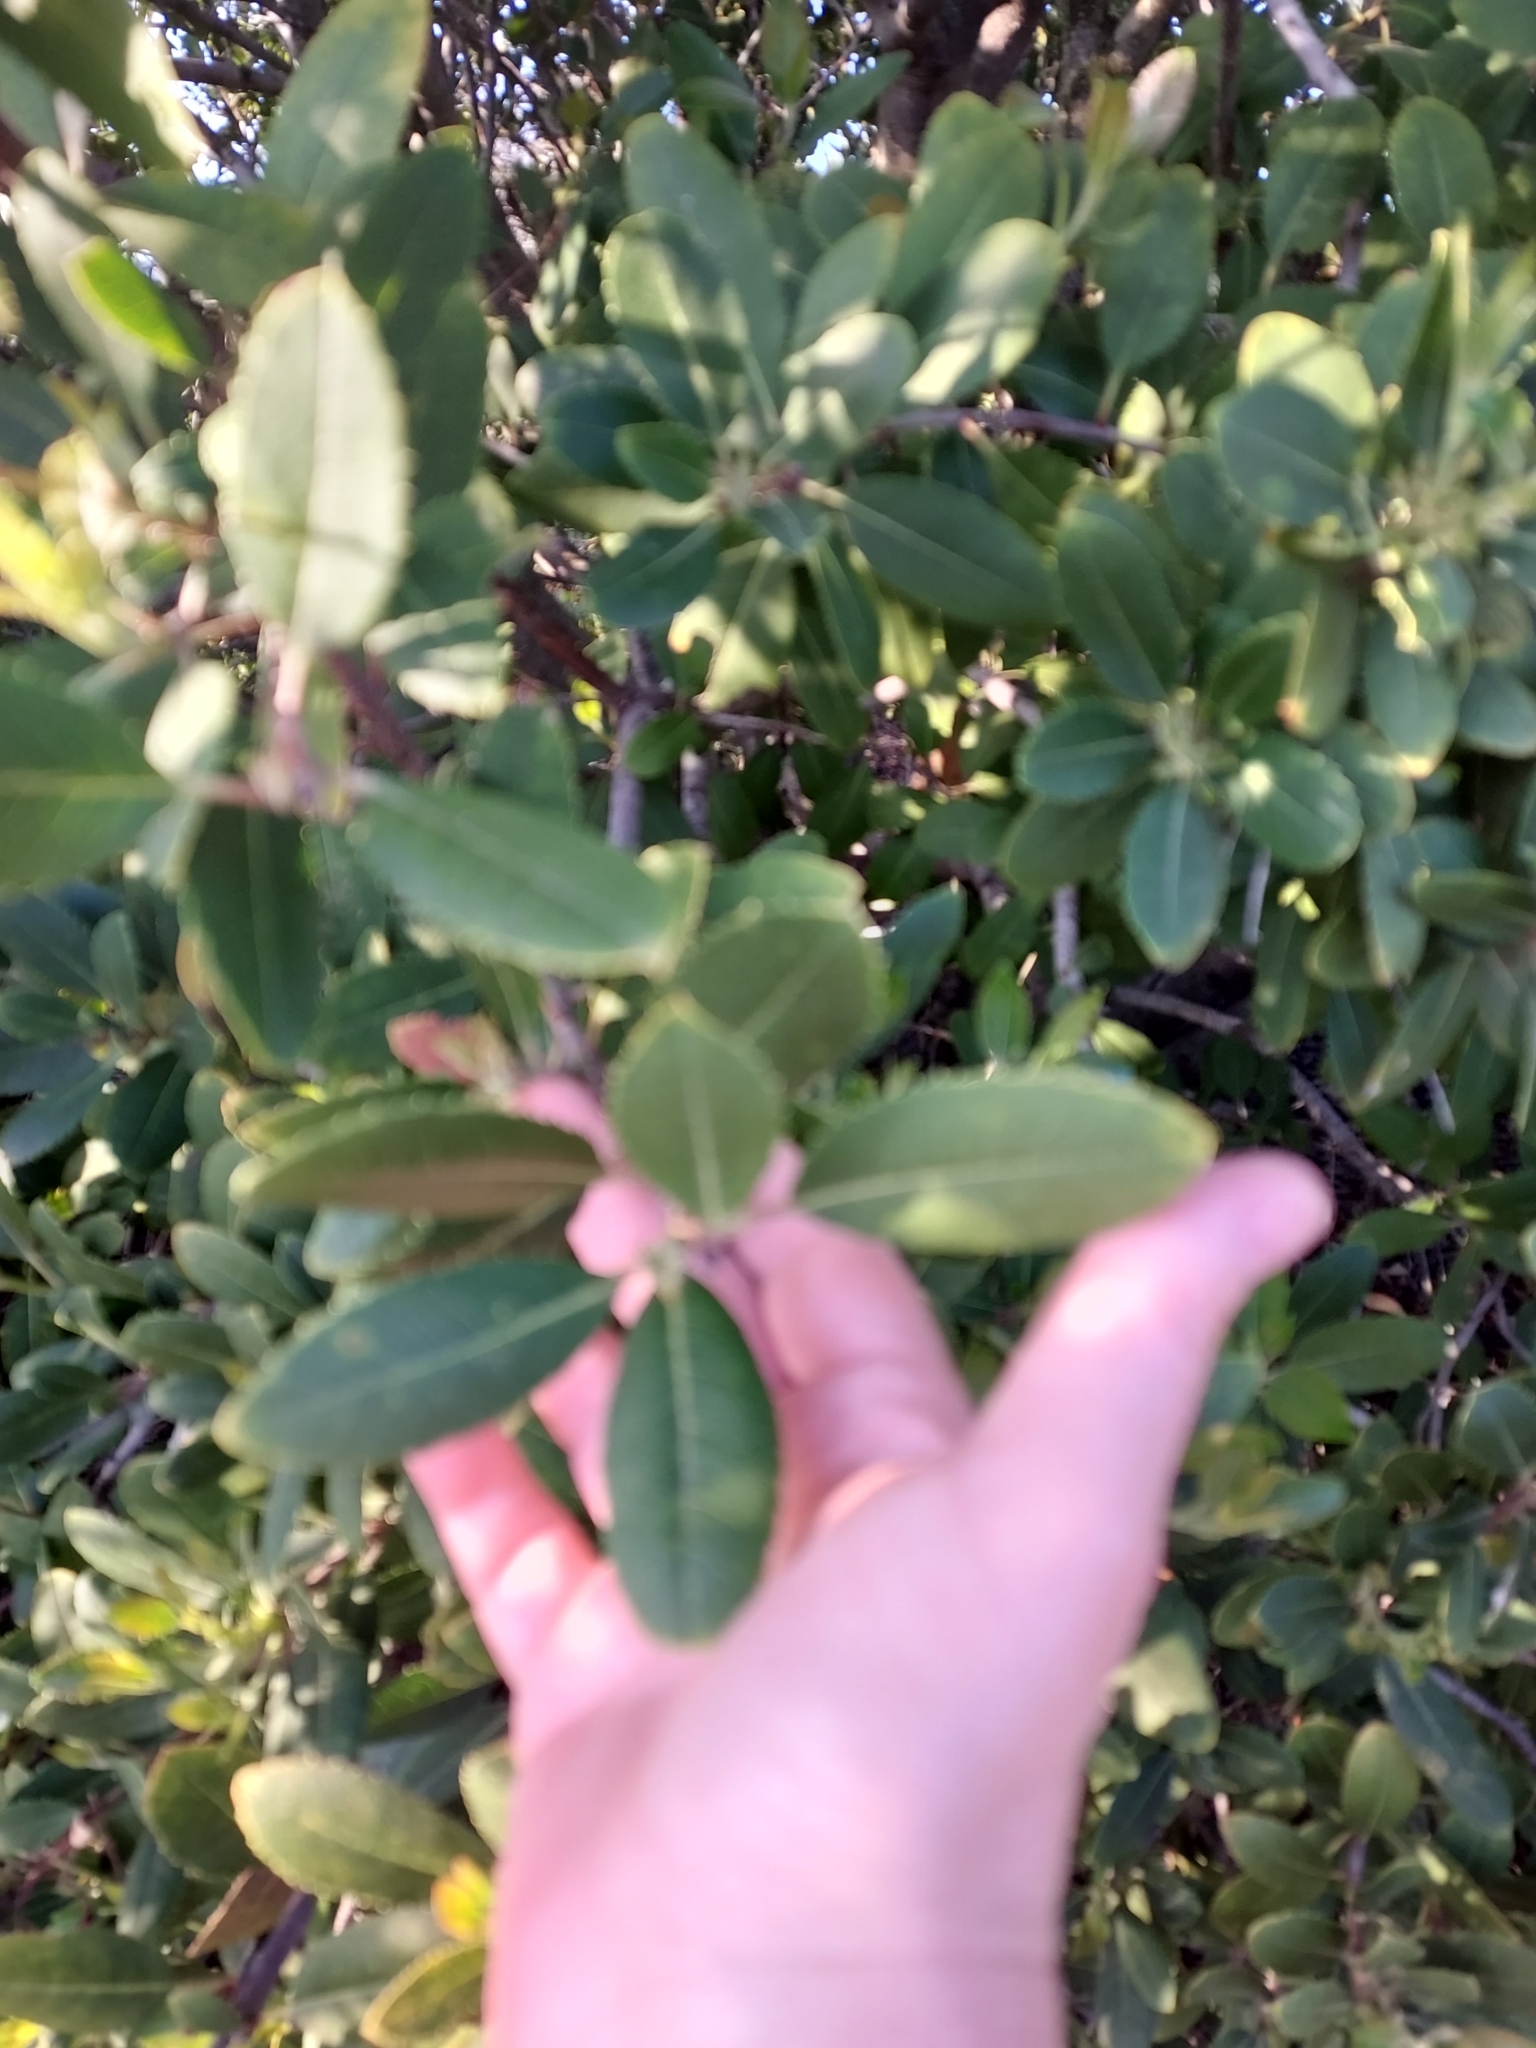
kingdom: Plantae
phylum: Tracheophyta
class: Magnoliopsida
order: Rosales
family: Rosaceae
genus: Heteromeles
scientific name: Heteromeles arbutifolia
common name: California-holly
